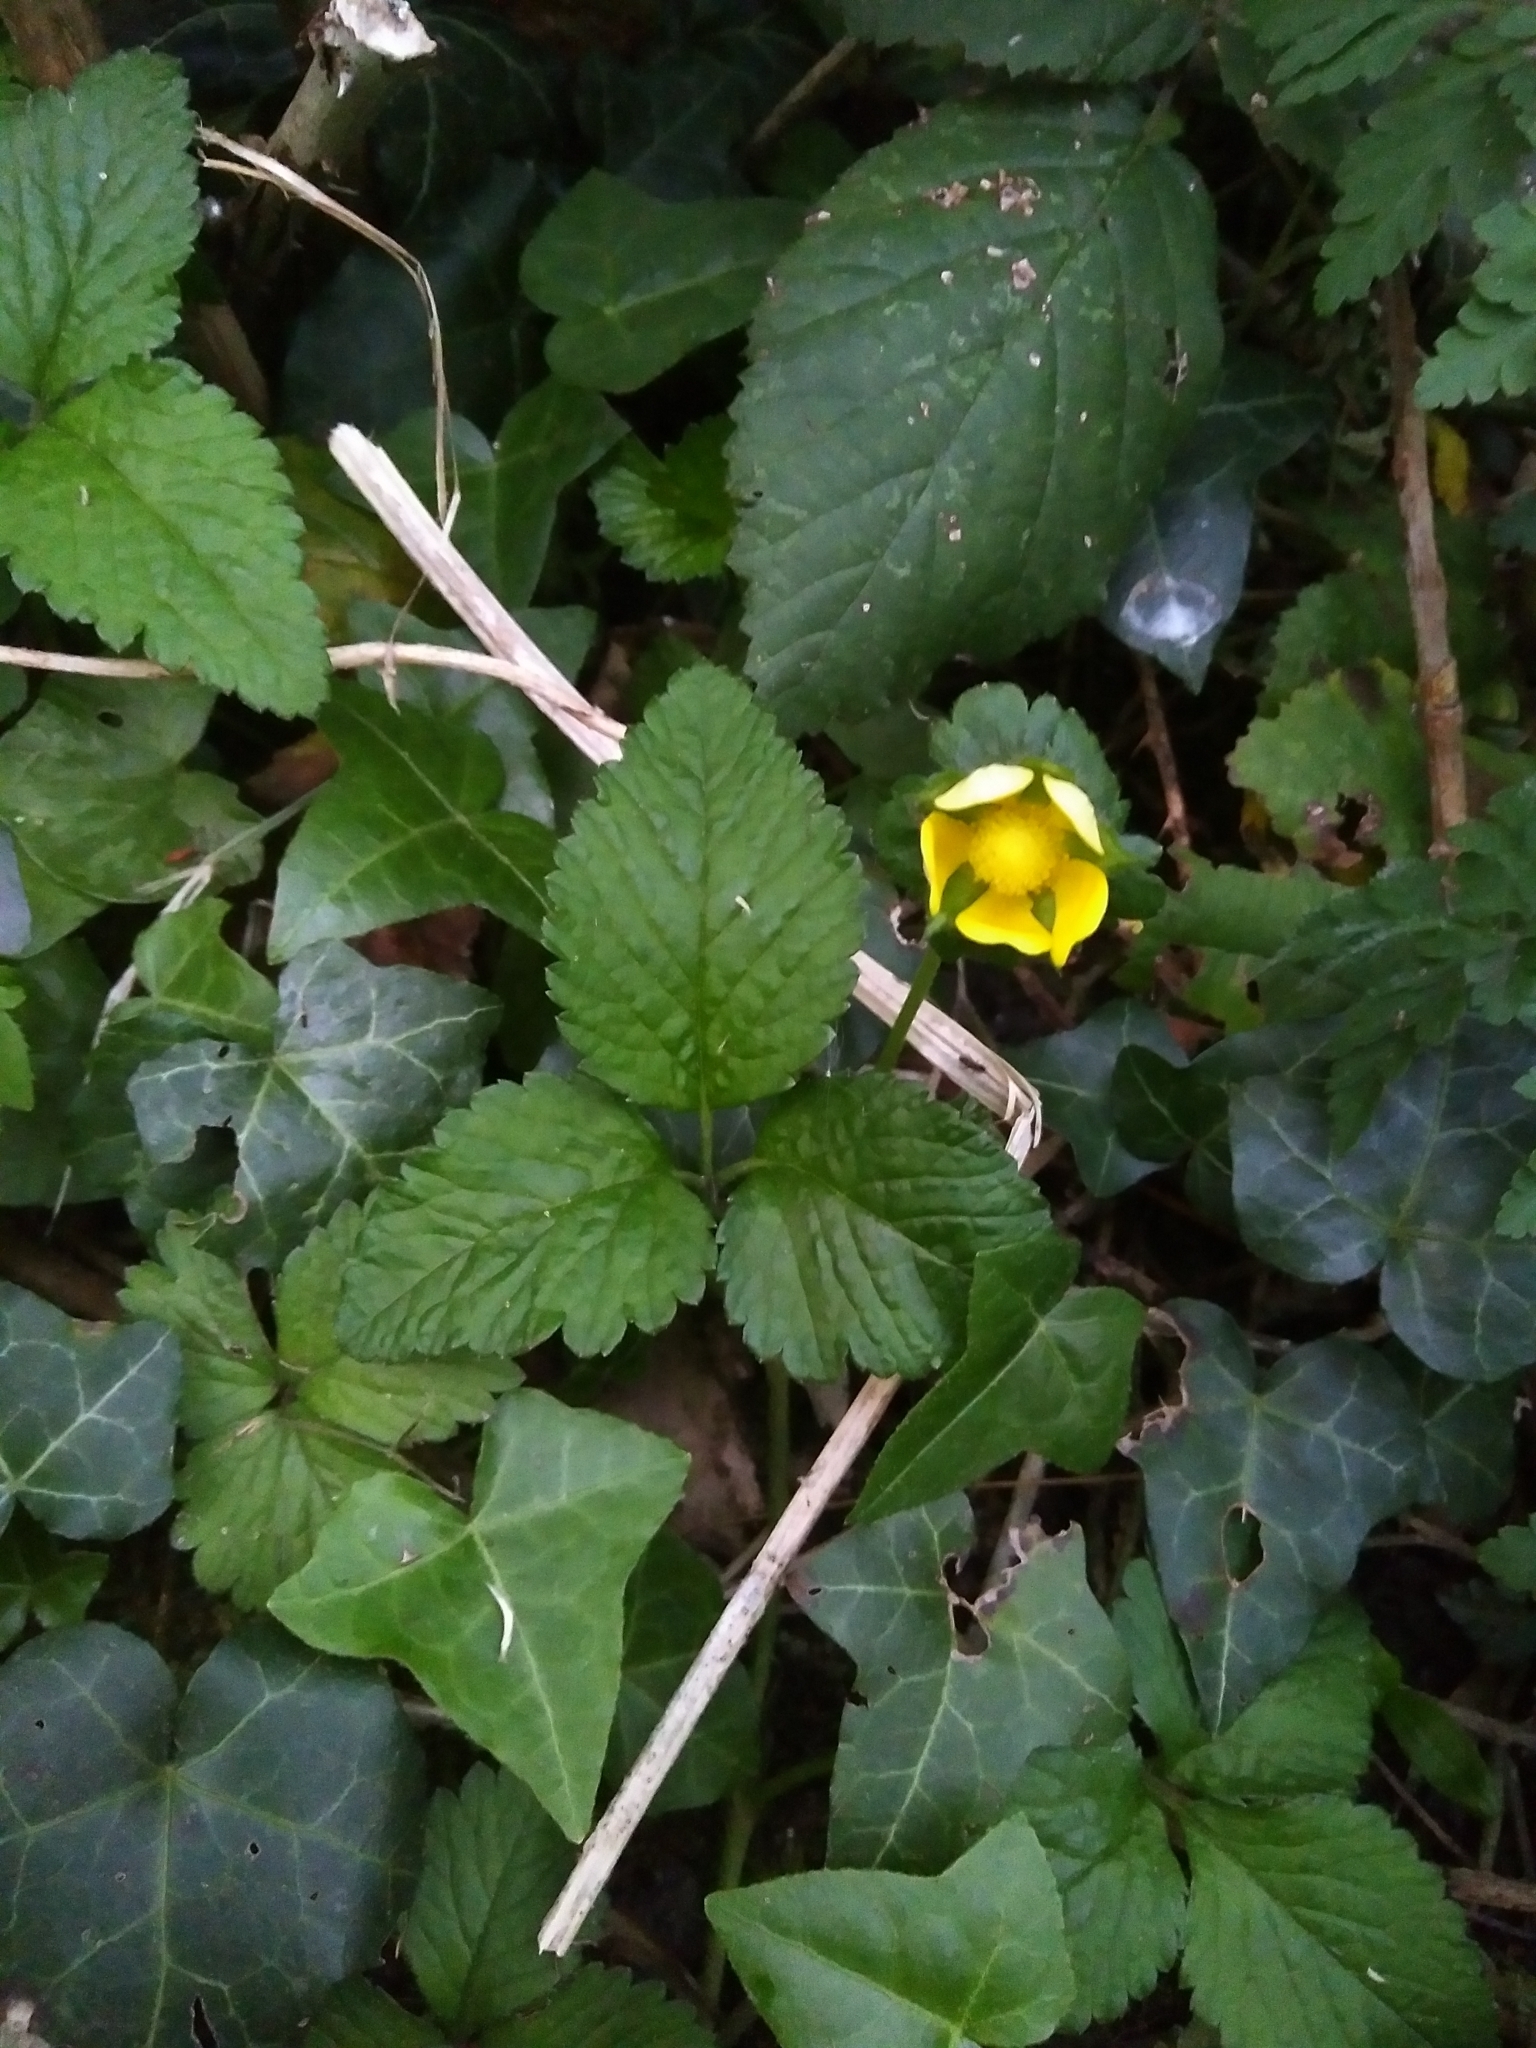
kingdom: Plantae
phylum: Tracheophyta
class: Magnoliopsida
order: Rosales
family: Rosaceae
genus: Potentilla
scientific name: Potentilla indica
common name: Yellow-flowered strawberry
